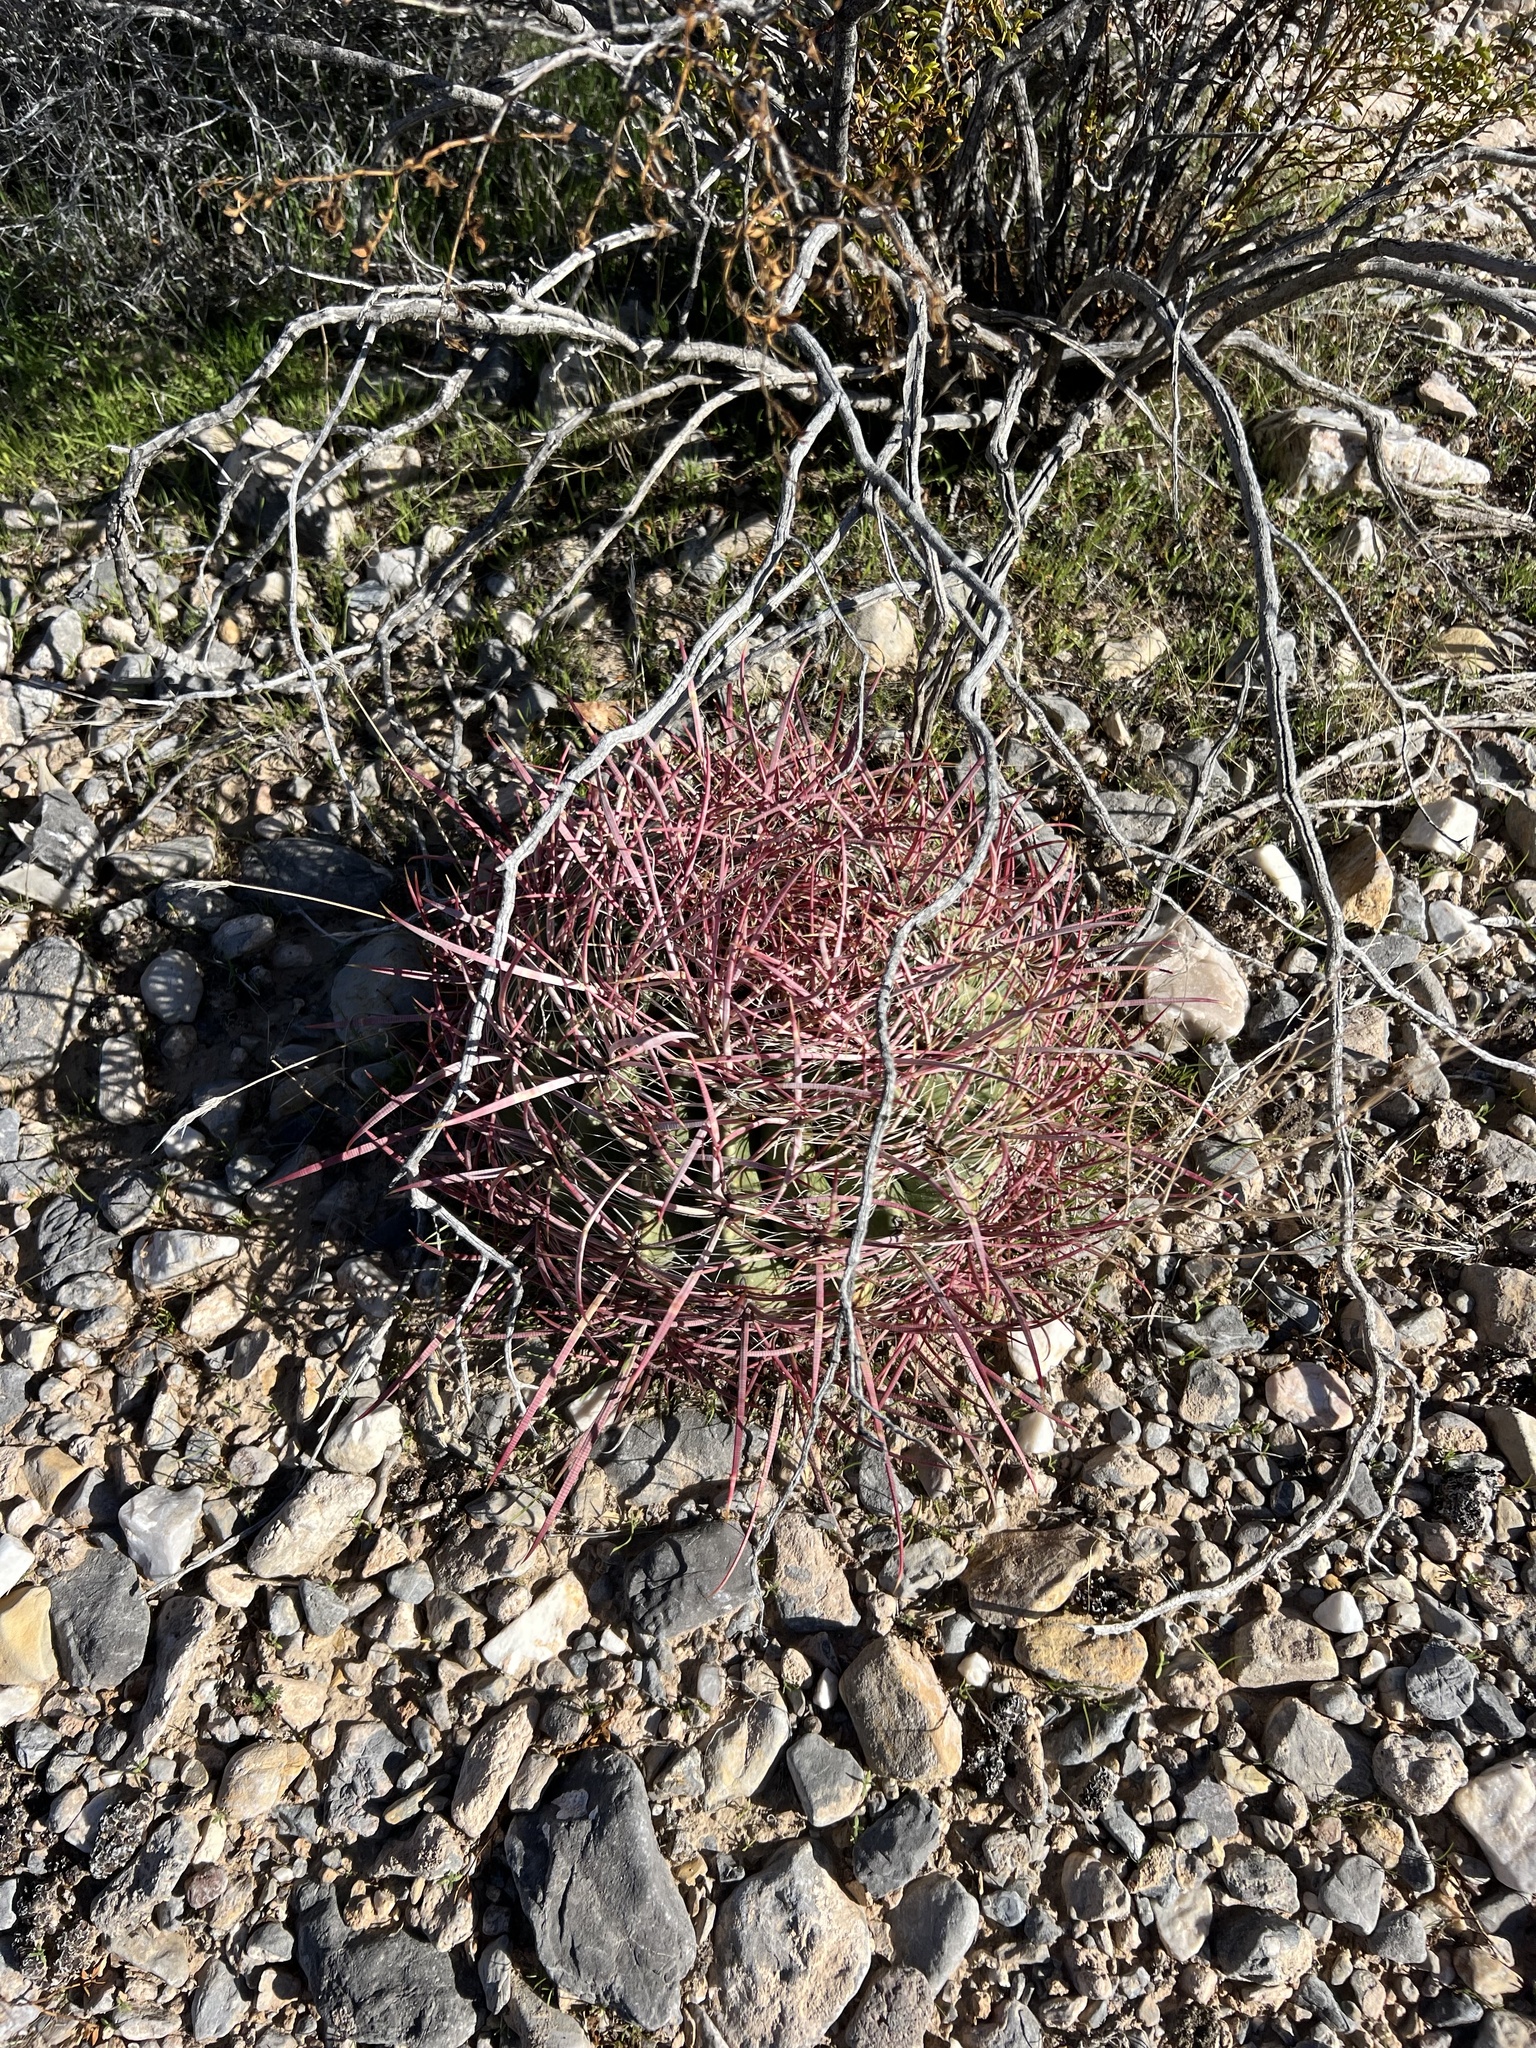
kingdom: Plantae
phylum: Tracheophyta
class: Magnoliopsida
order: Caryophyllales
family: Cactaceae
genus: Ferocactus
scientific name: Ferocactus cylindraceus
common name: California barrel cactus
